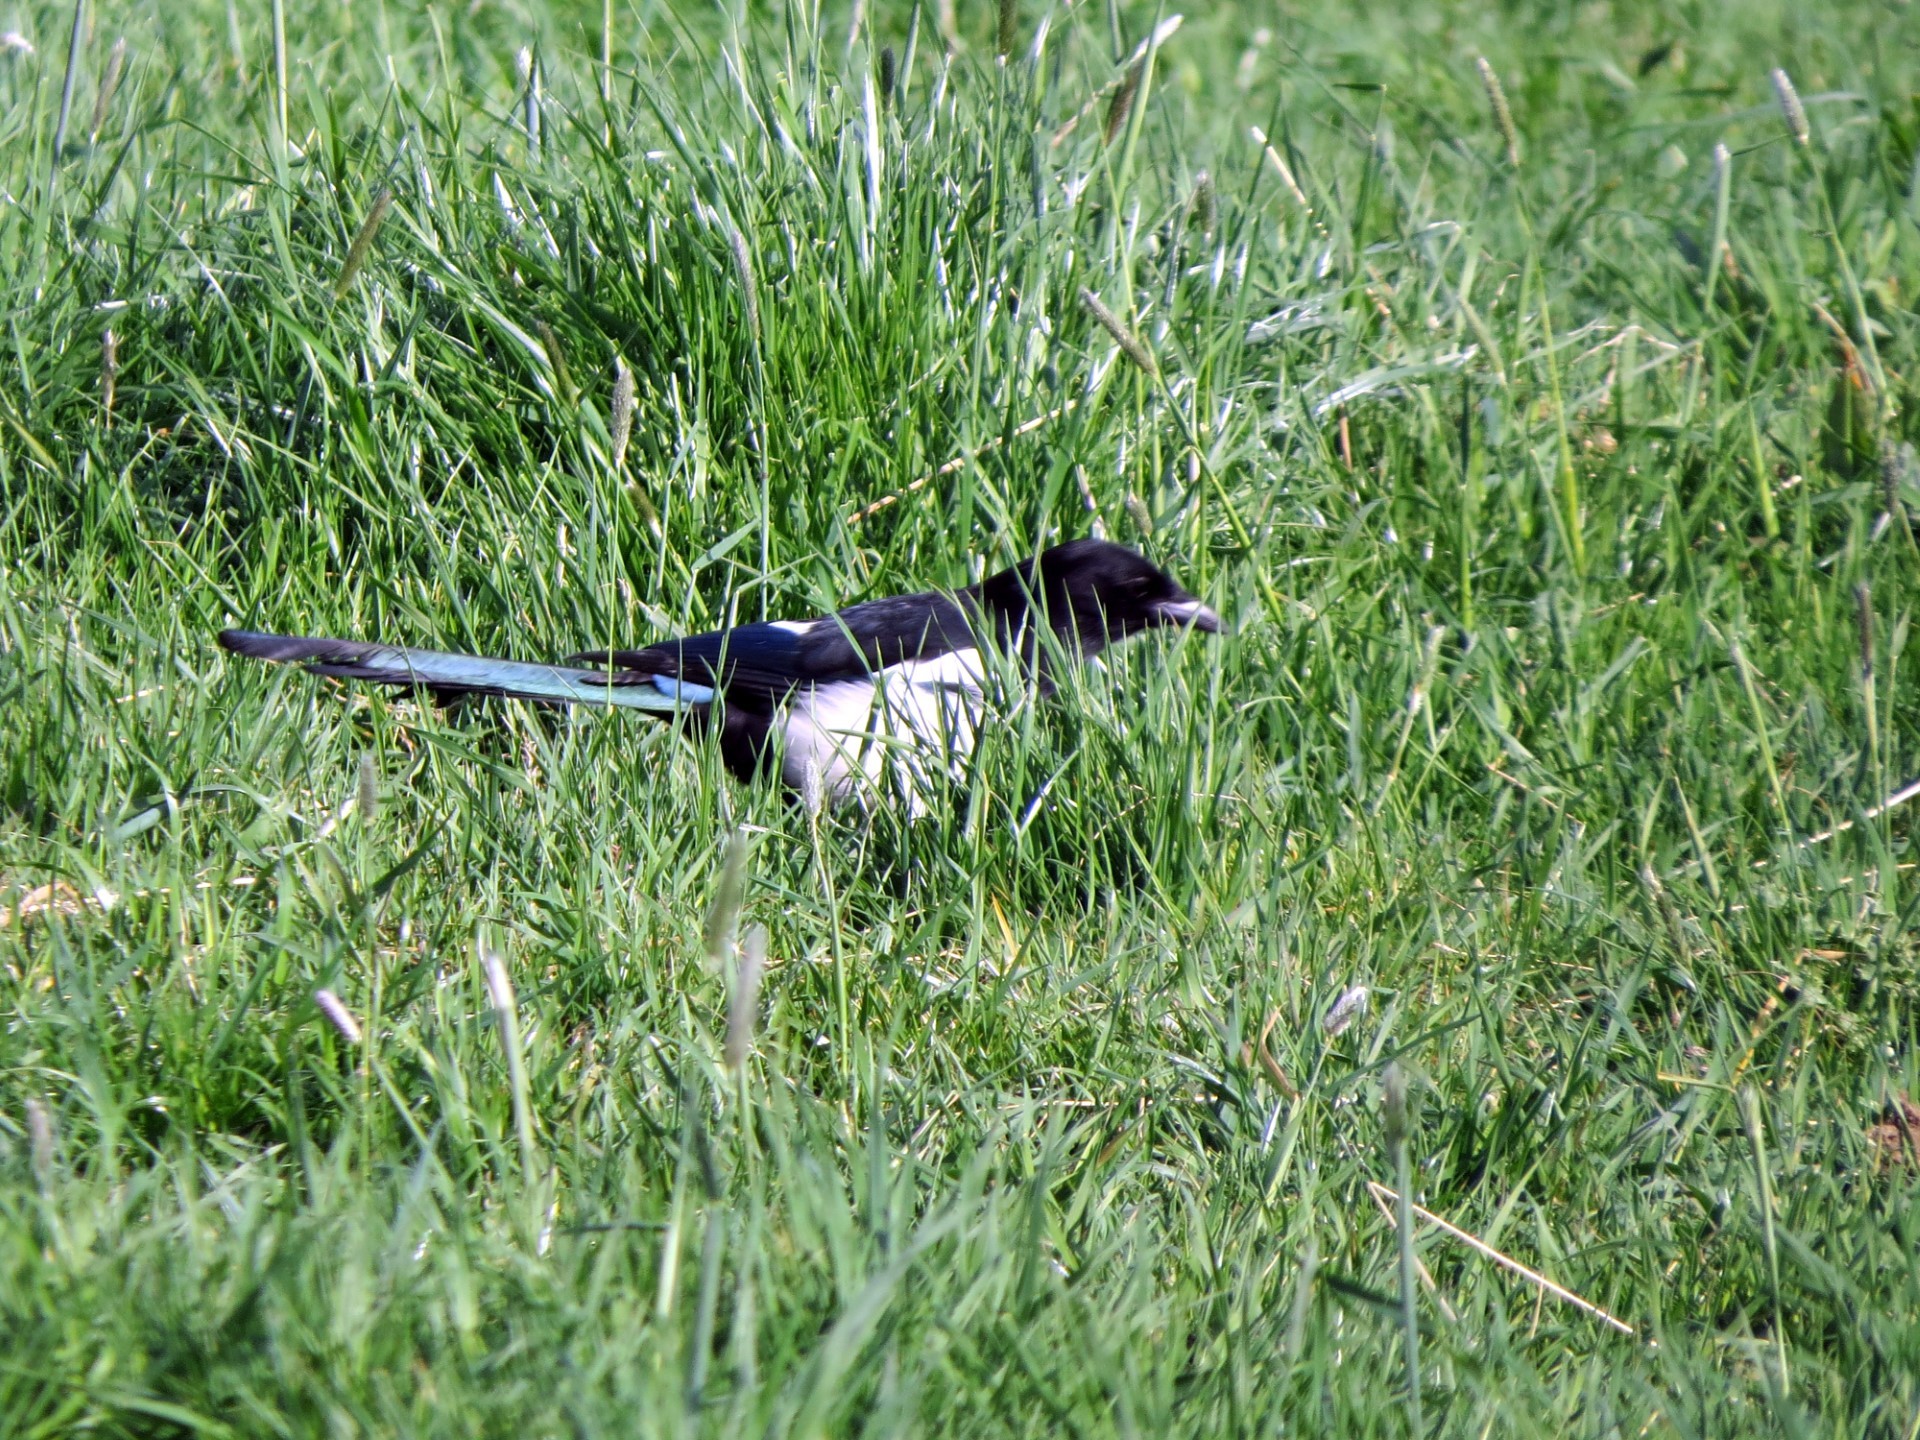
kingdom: Animalia
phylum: Chordata
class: Aves
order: Passeriformes
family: Corvidae
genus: Pica
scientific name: Pica pica
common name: Eurasian magpie
